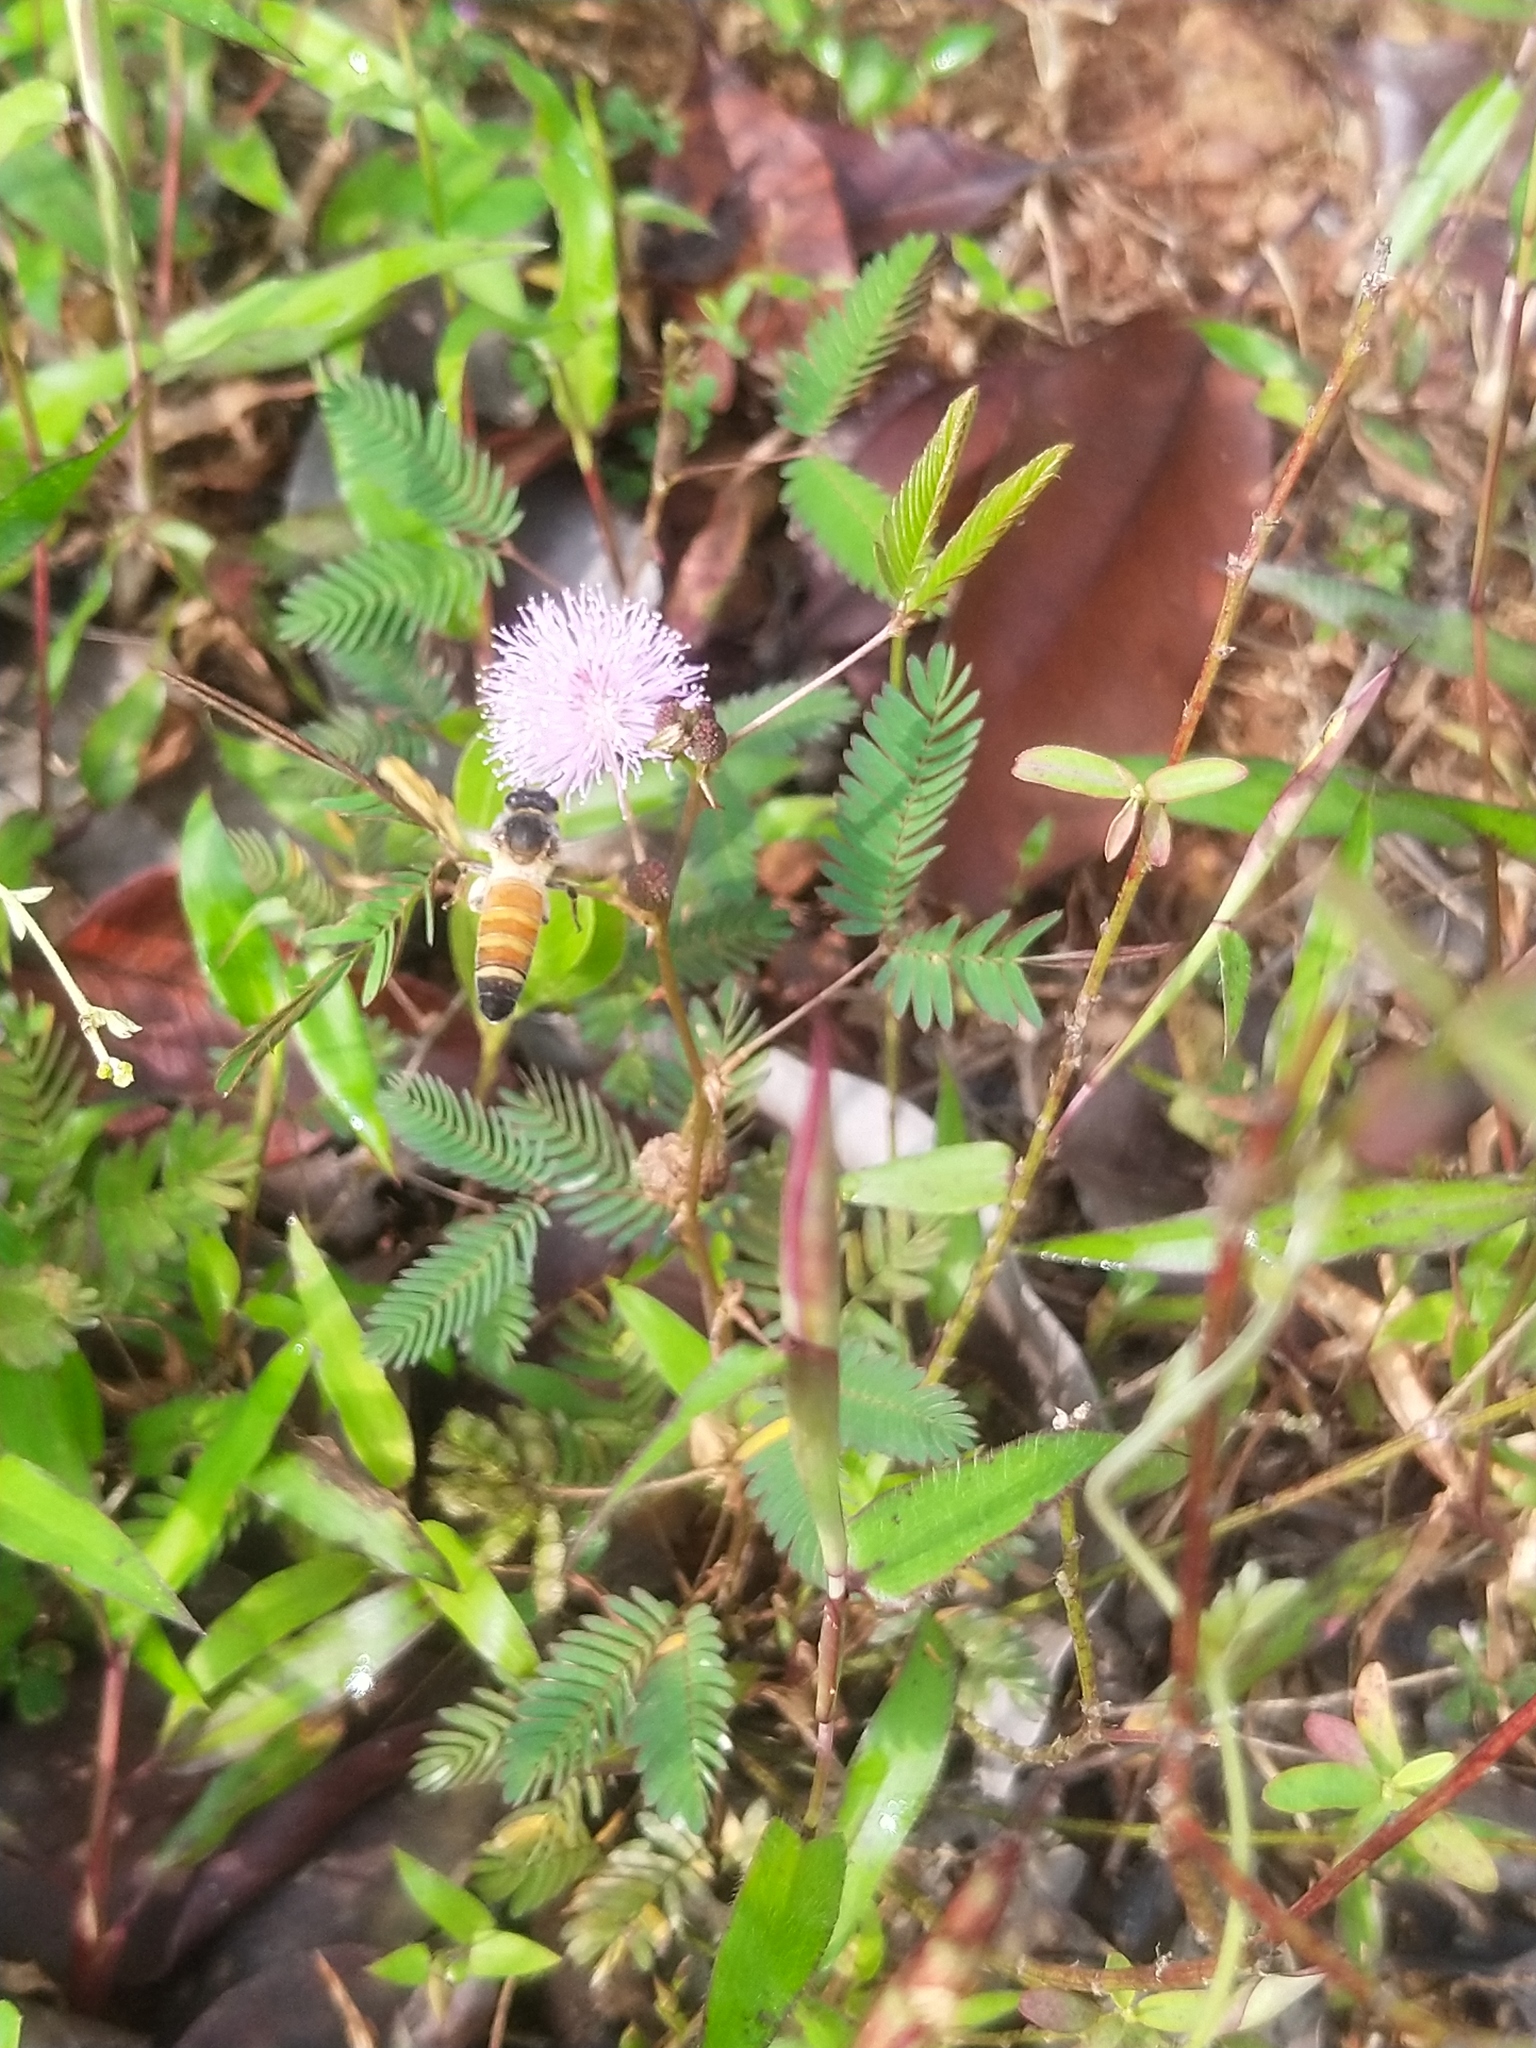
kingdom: Animalia
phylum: Arthropoda
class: Insecta
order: Hymenoptera
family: Apidae
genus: Apis
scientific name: Apis dorsata
